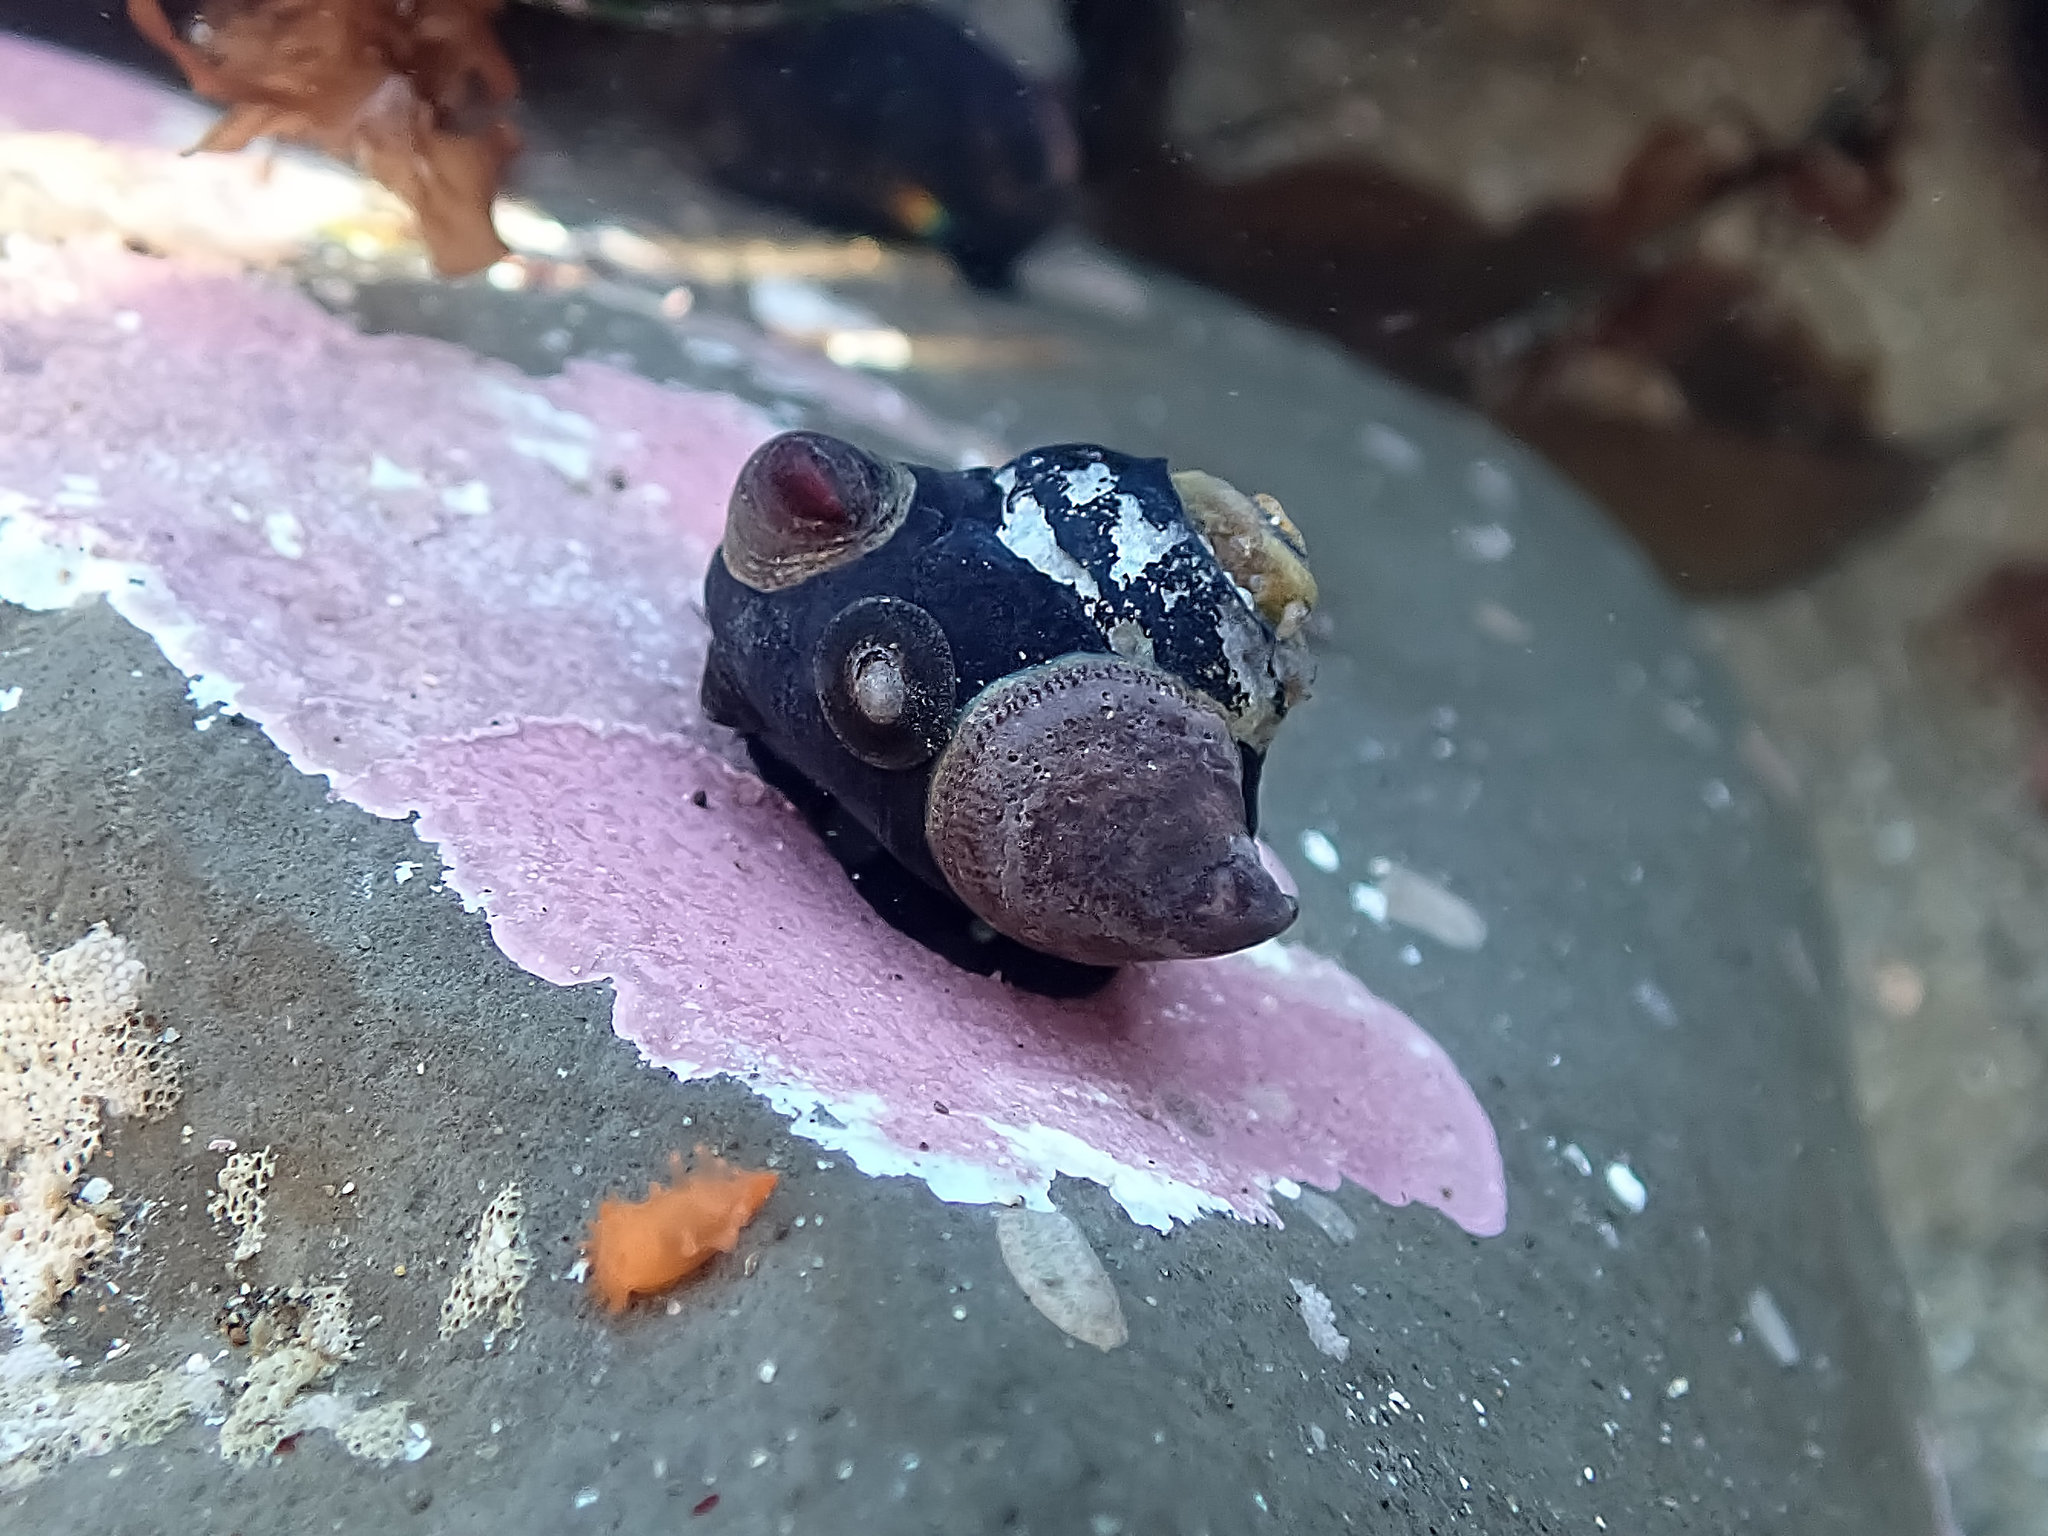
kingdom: Animalia
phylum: Mollusca
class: Gastropoda
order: Littorinimorpha
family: Calyptraeidae
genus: Crepidula
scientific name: Crepidula adunca
